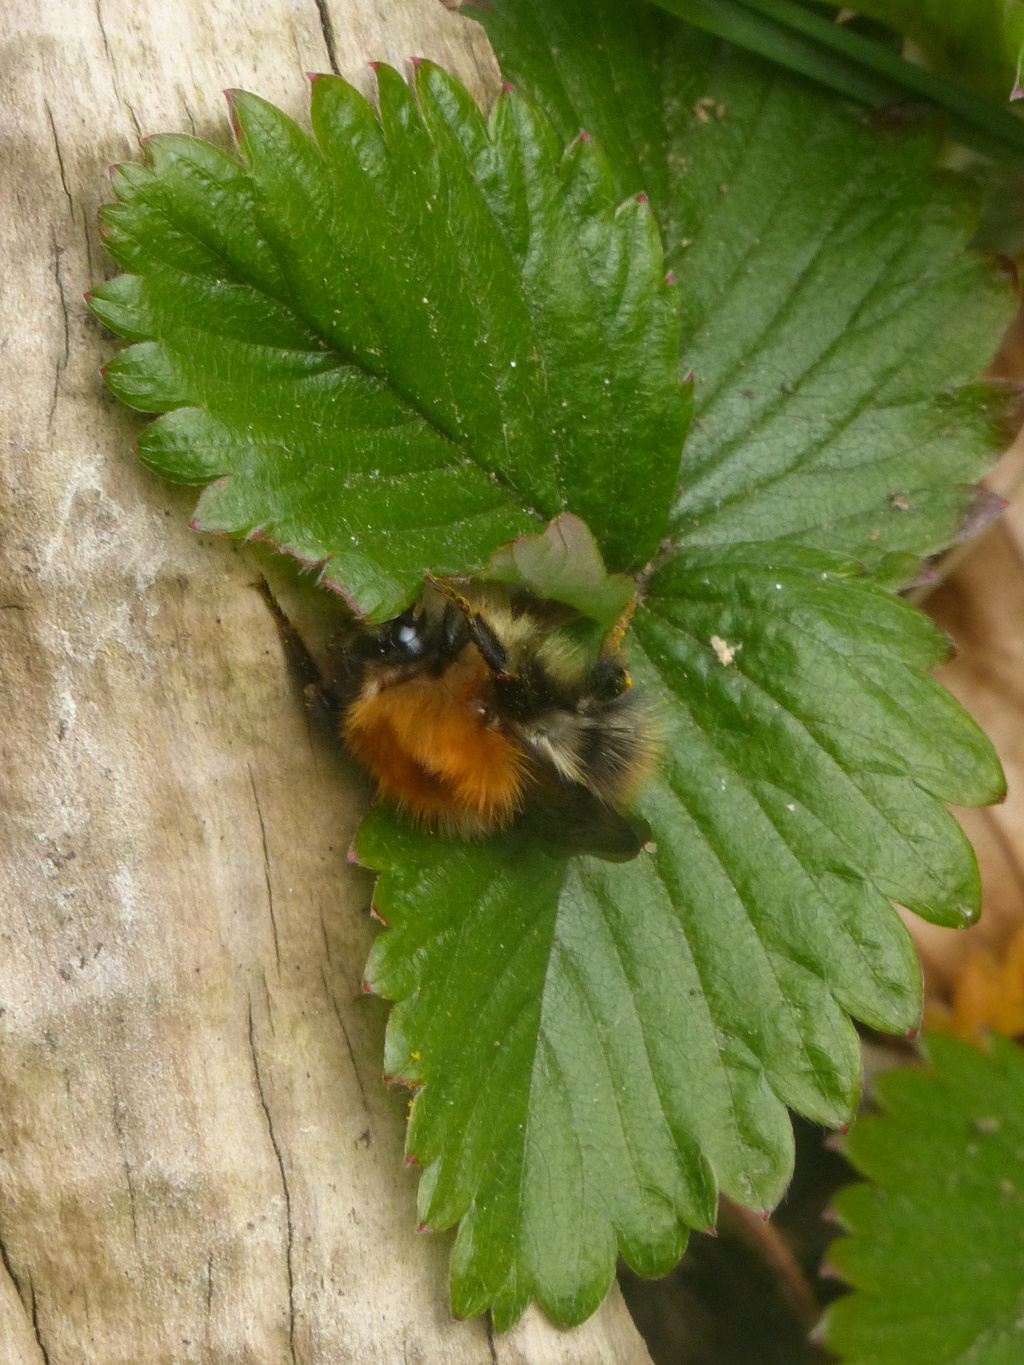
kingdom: Animalia
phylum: Arthropoda
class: Insecta
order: Hymenoptera
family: Apidae
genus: Bombus
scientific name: Bombus pascuorum
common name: Common carder bee
